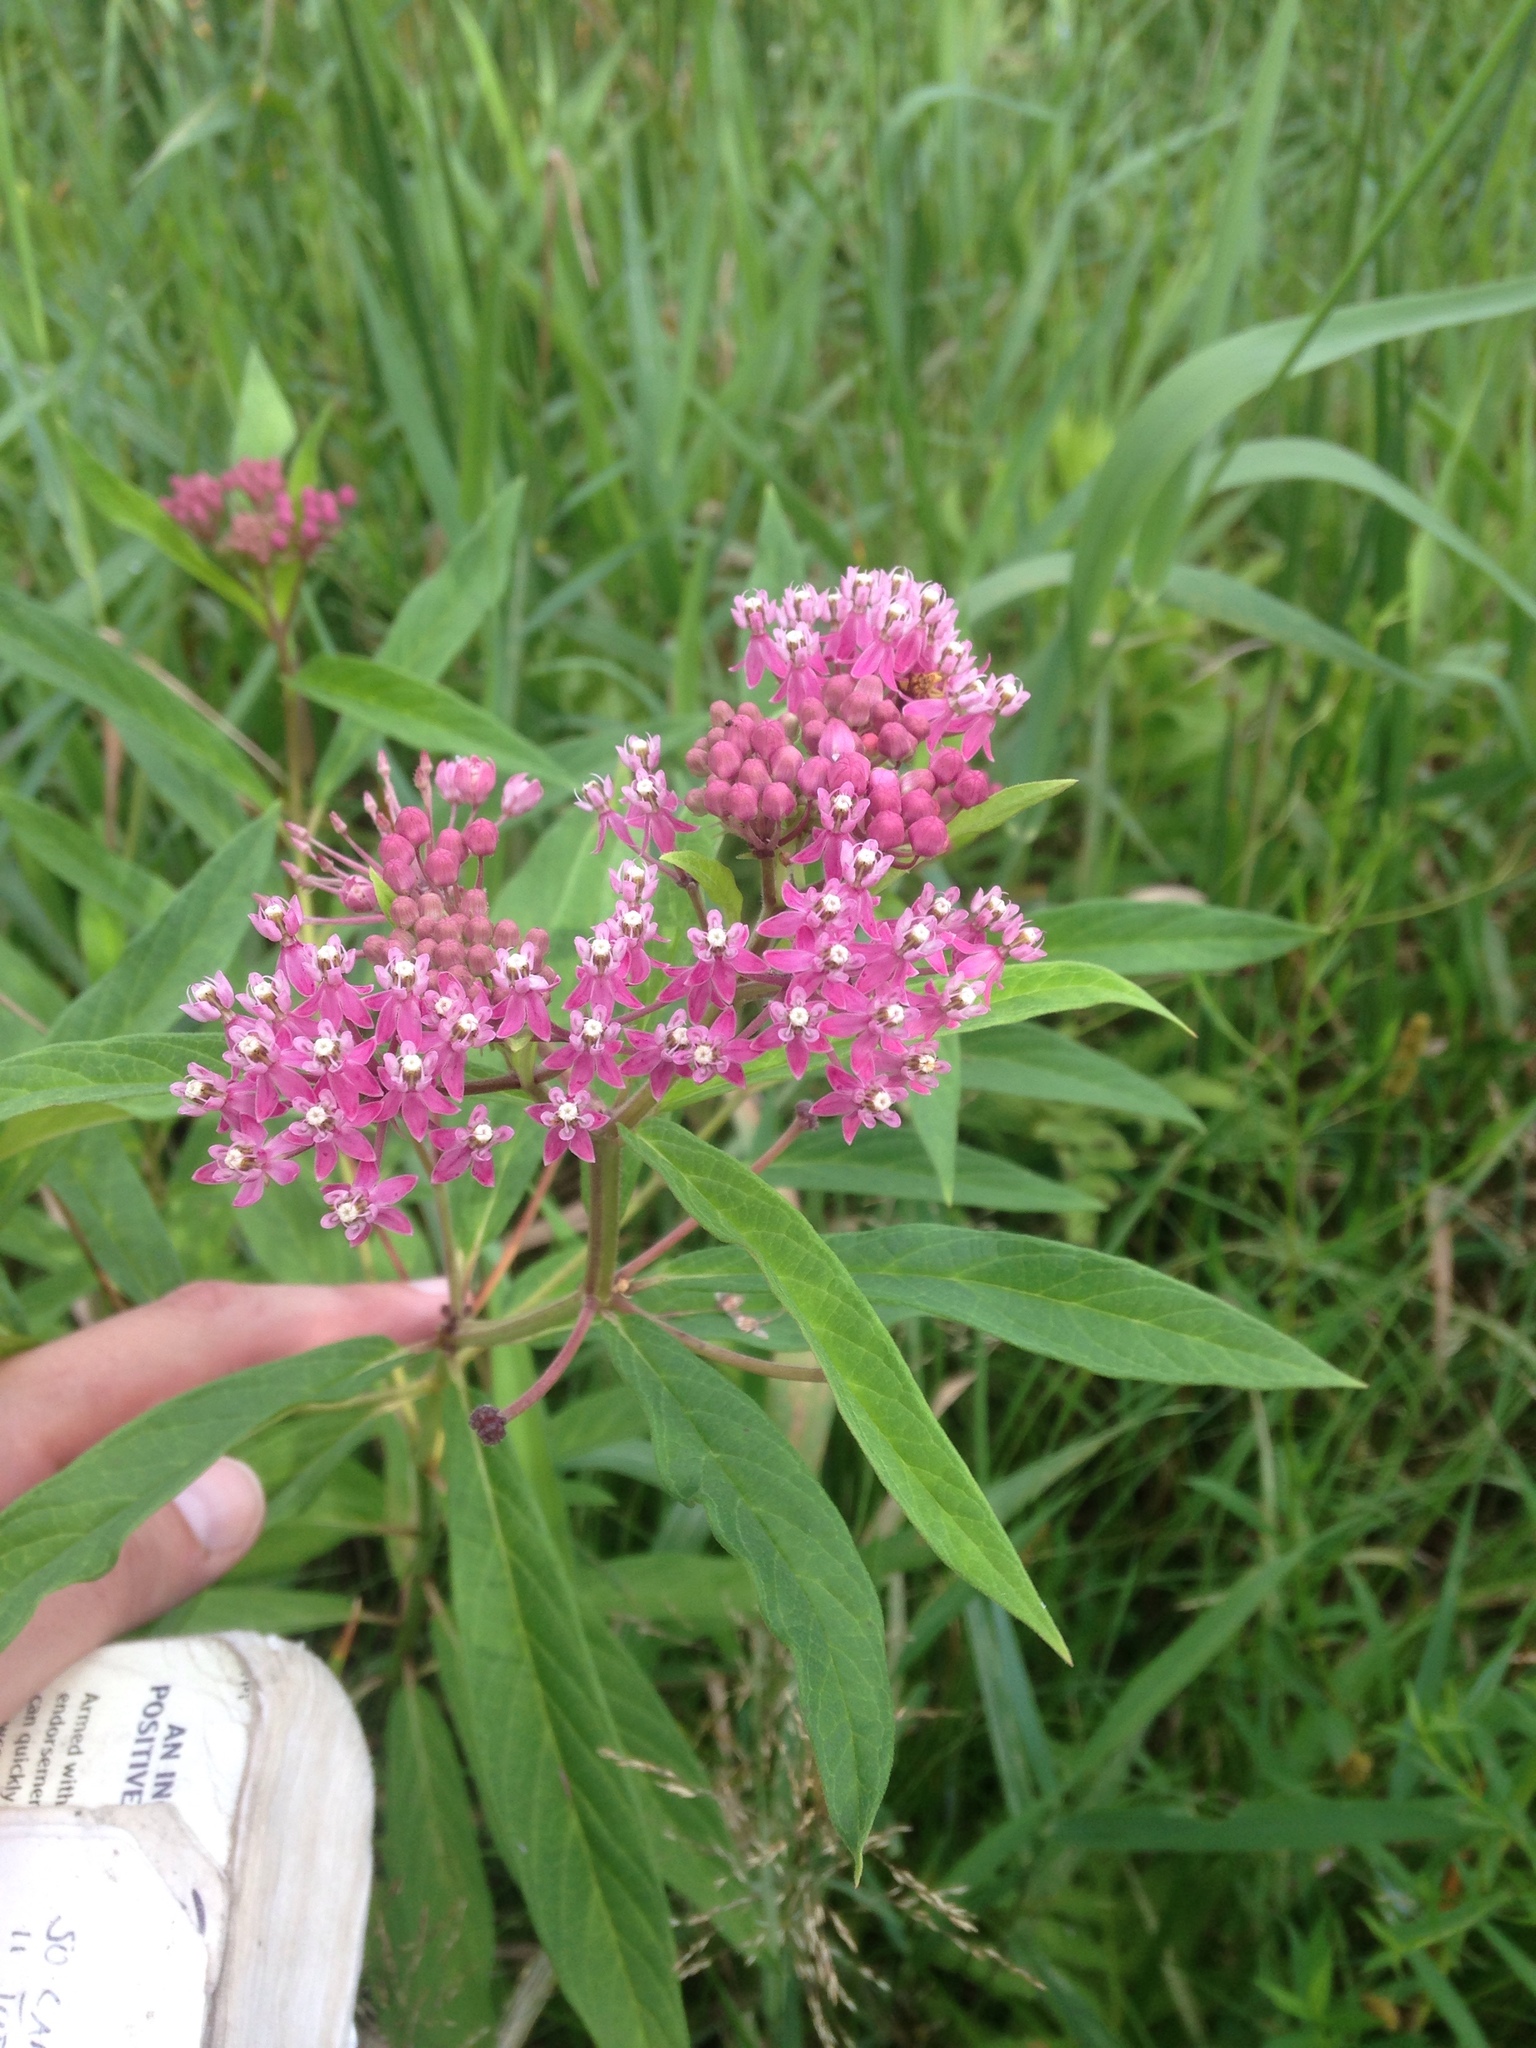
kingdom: Plantae
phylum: Tracheophyta
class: Magnoliopsida
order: Gentianales
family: Apocynaceae
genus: Asclepias
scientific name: Asclepias incarnata
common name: Swamp milkweed
